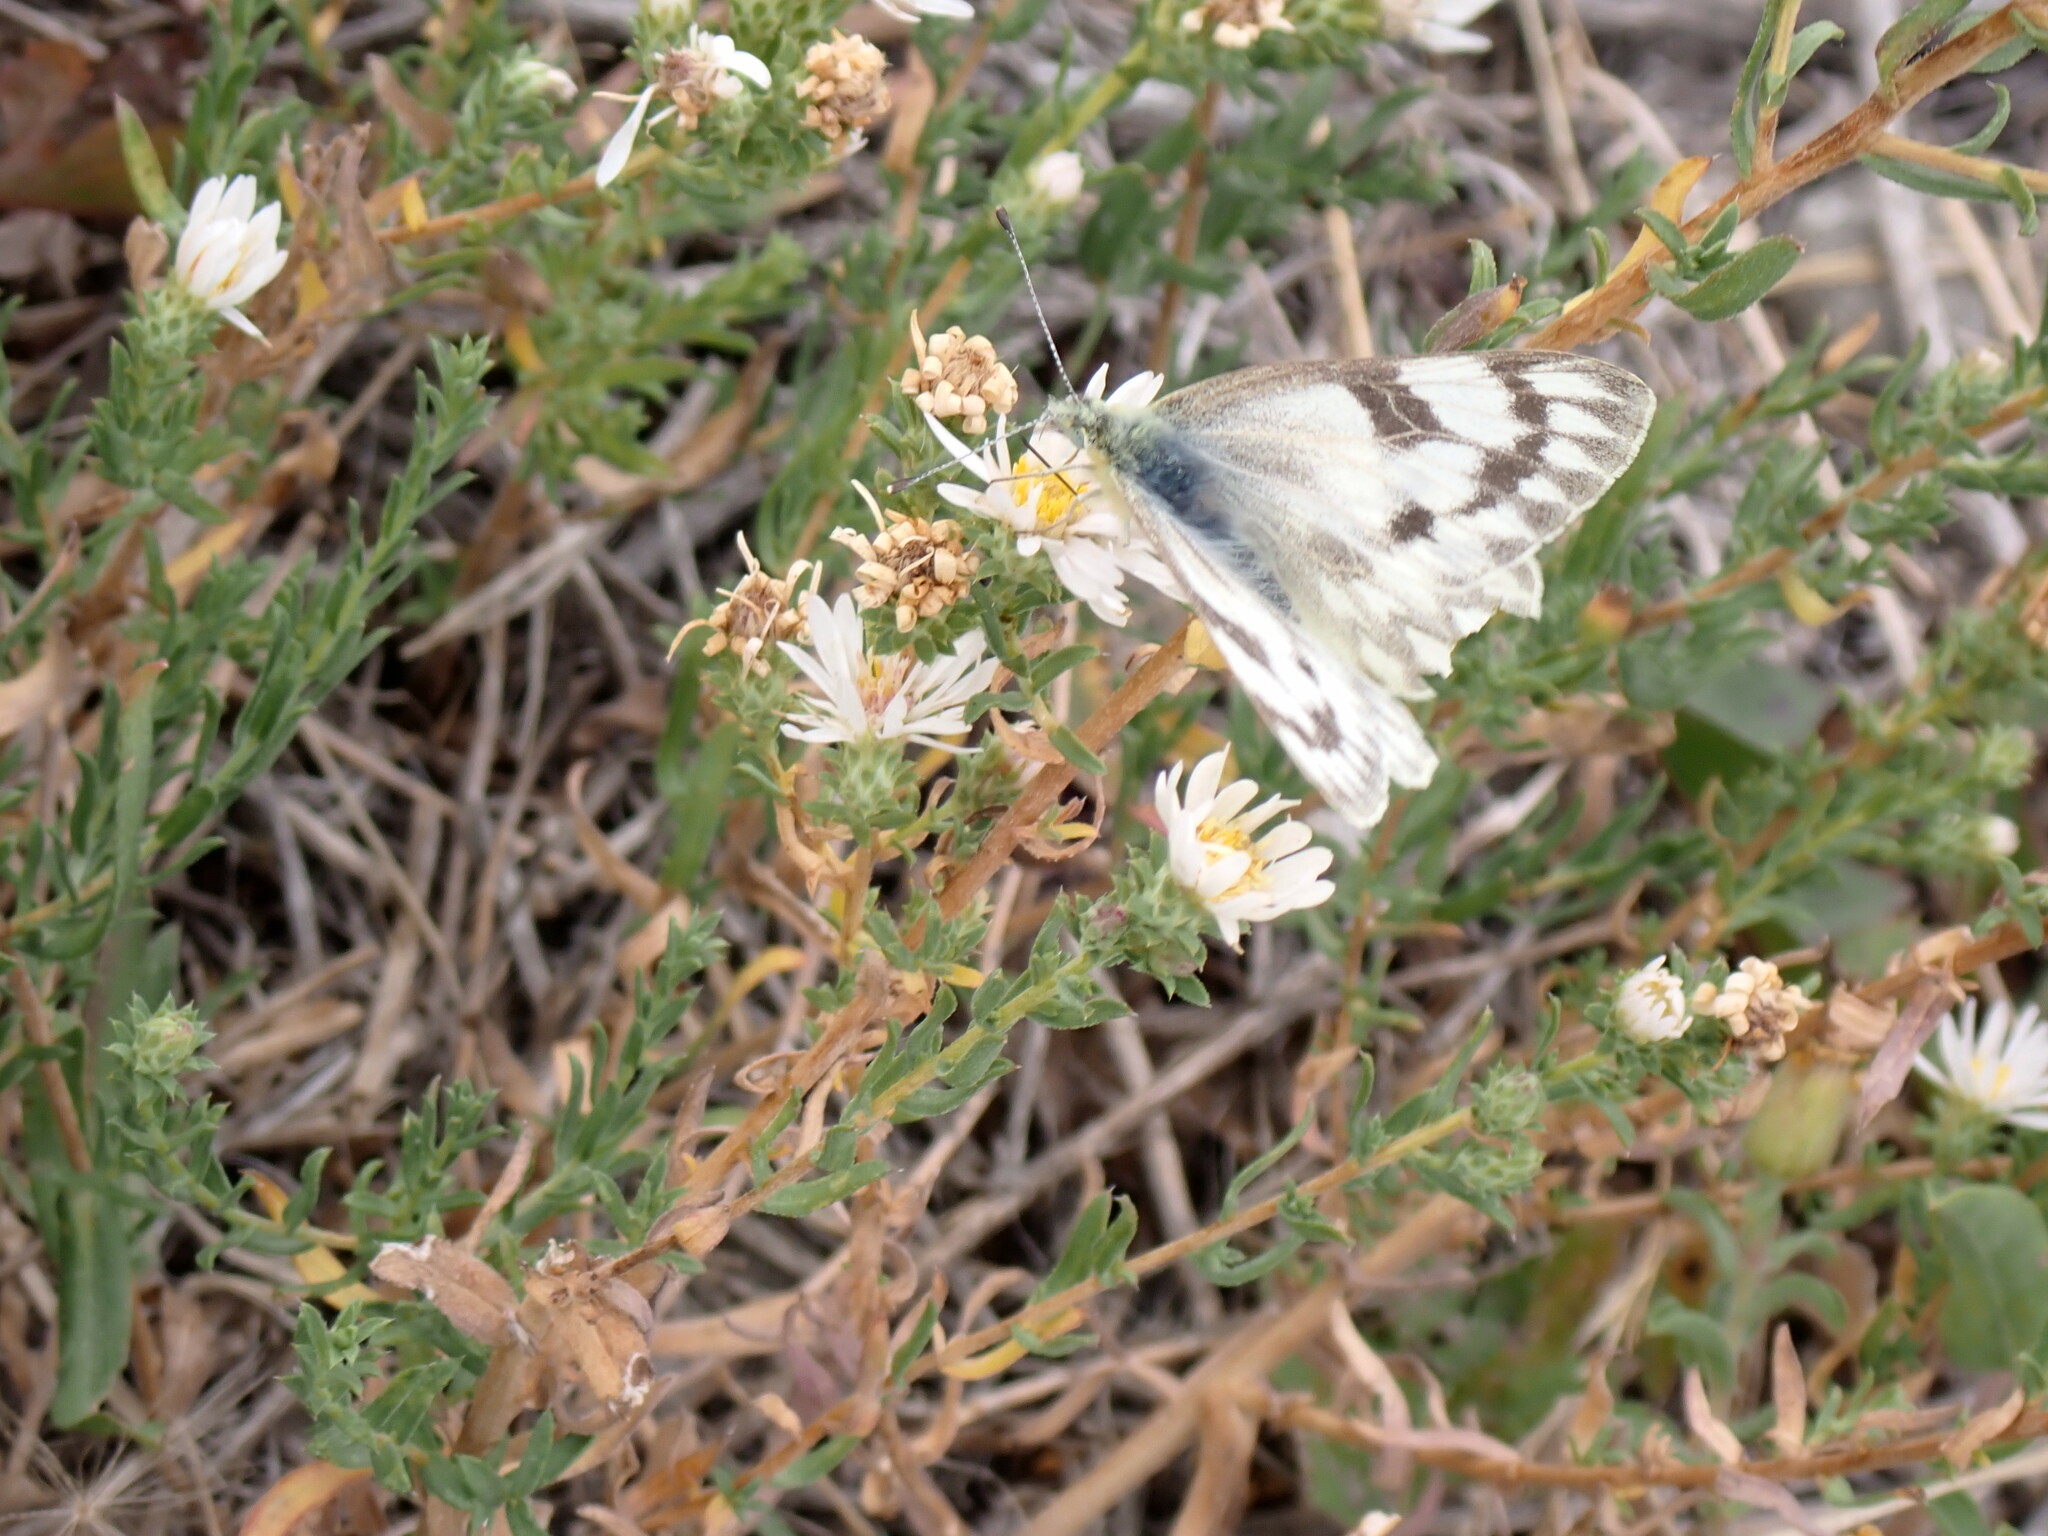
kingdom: Animalia
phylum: Arthropoda
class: Insecta
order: Lepidoptera
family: Pieridae
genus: Pontia
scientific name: Pontia occidentalis
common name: Western white
